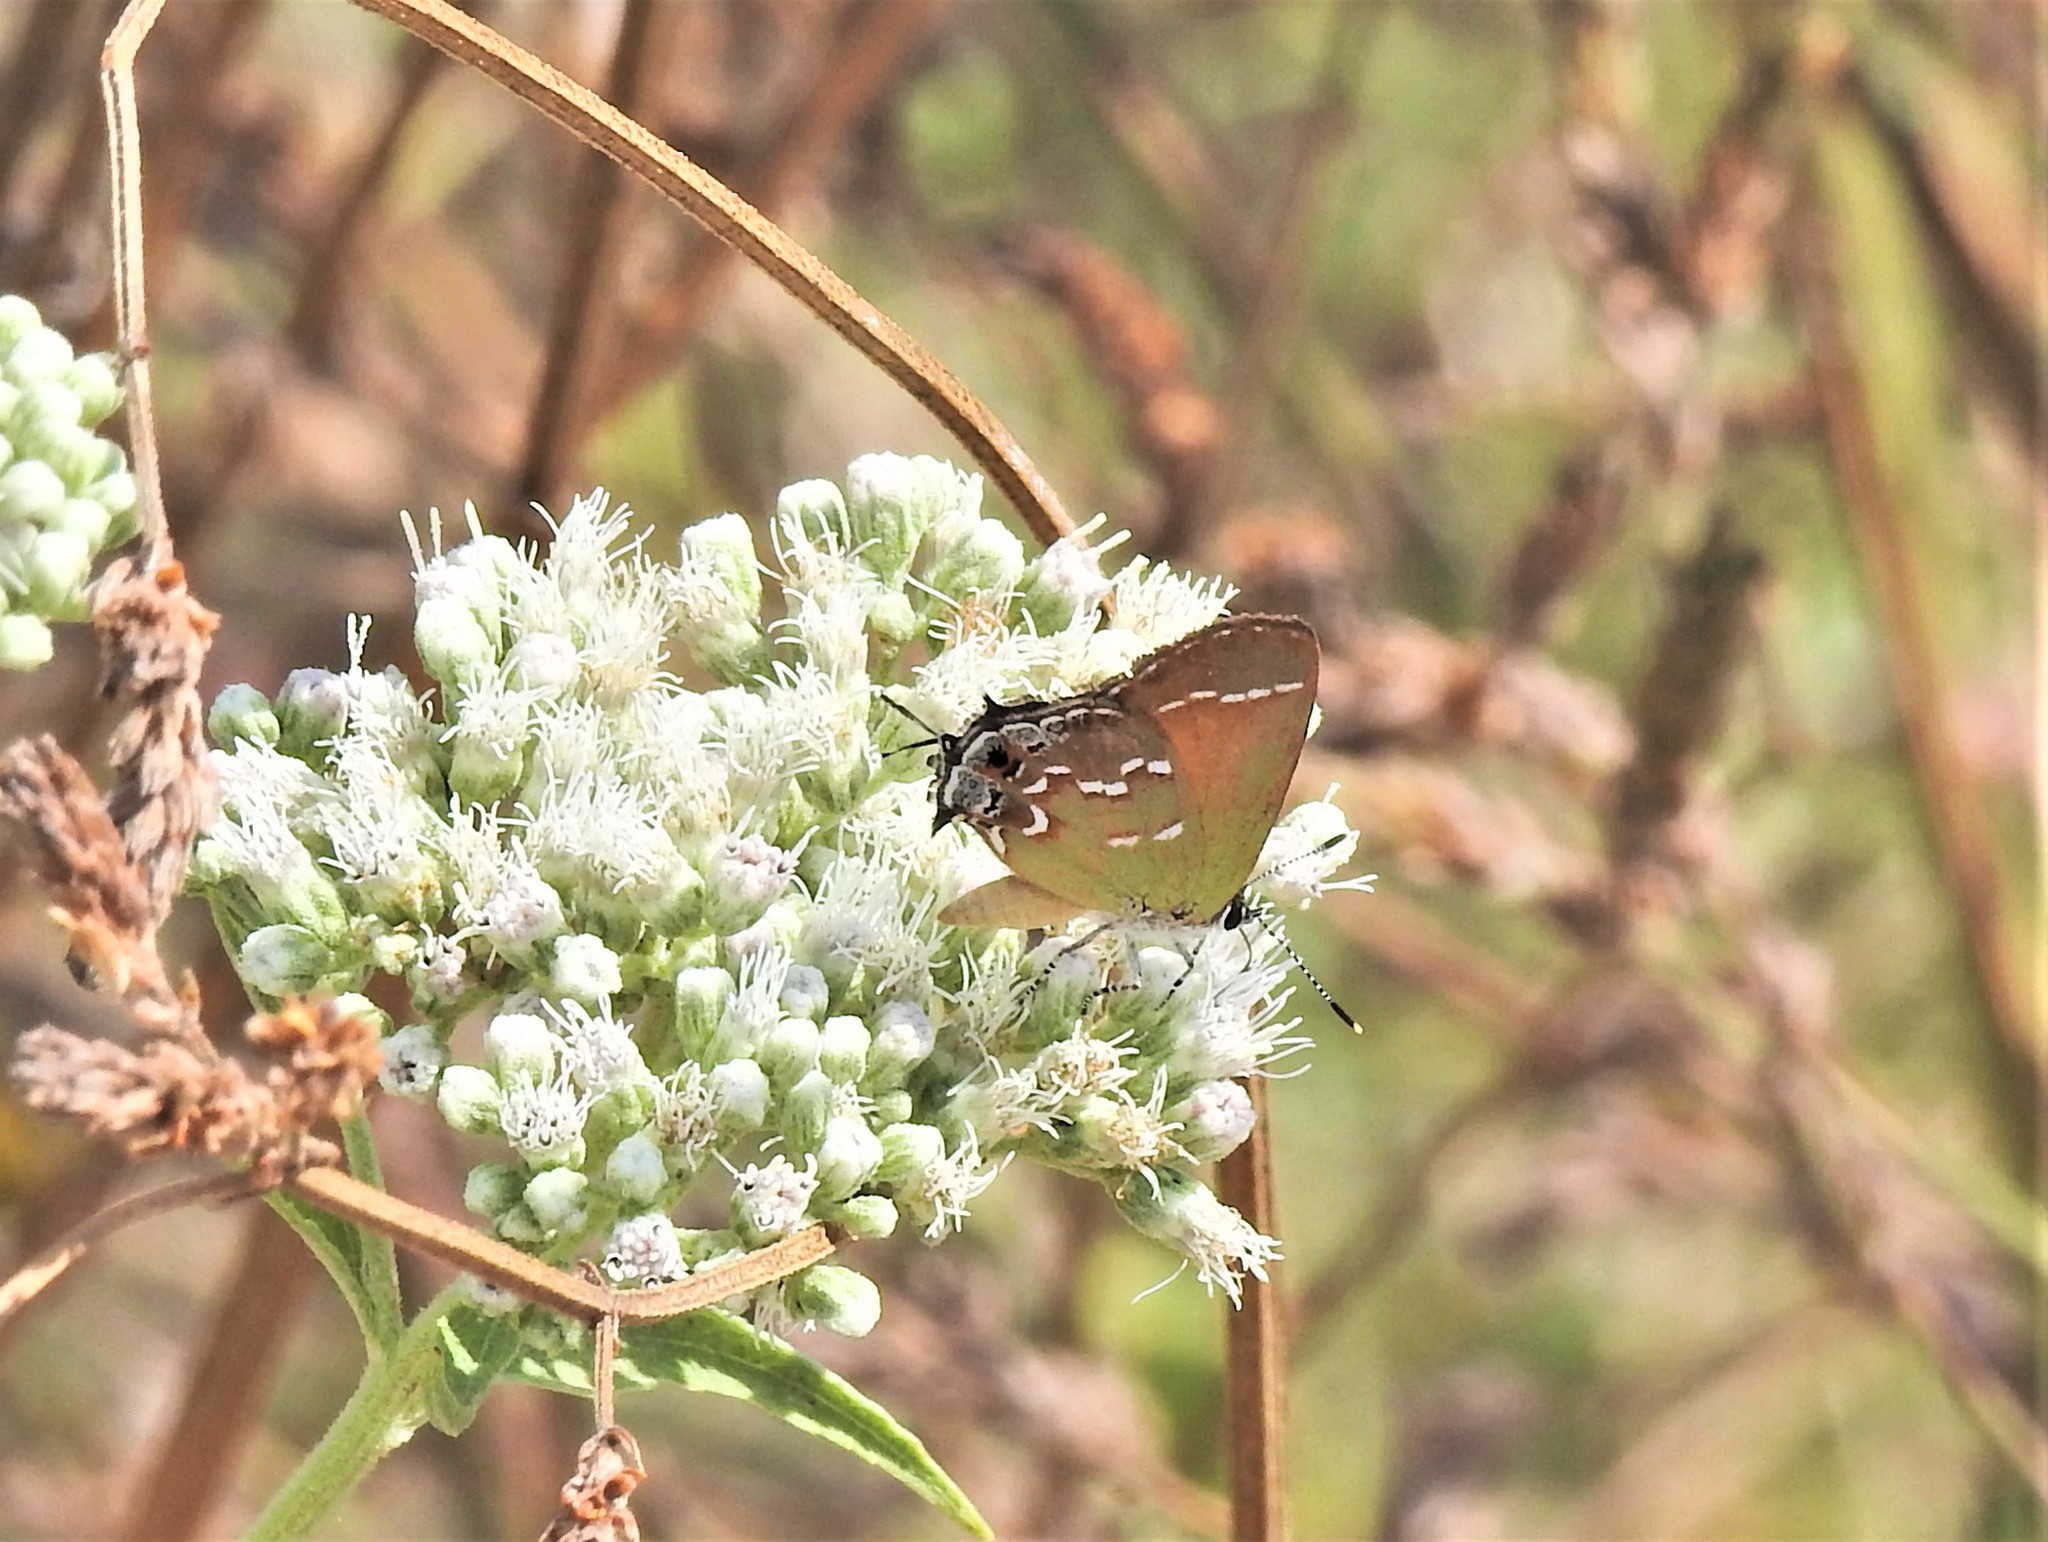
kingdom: Animalia
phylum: Arthropoda
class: Insecta
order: Lepidoptera
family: Lycaenidae
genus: Mitoura
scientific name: Mitoura gryneus
